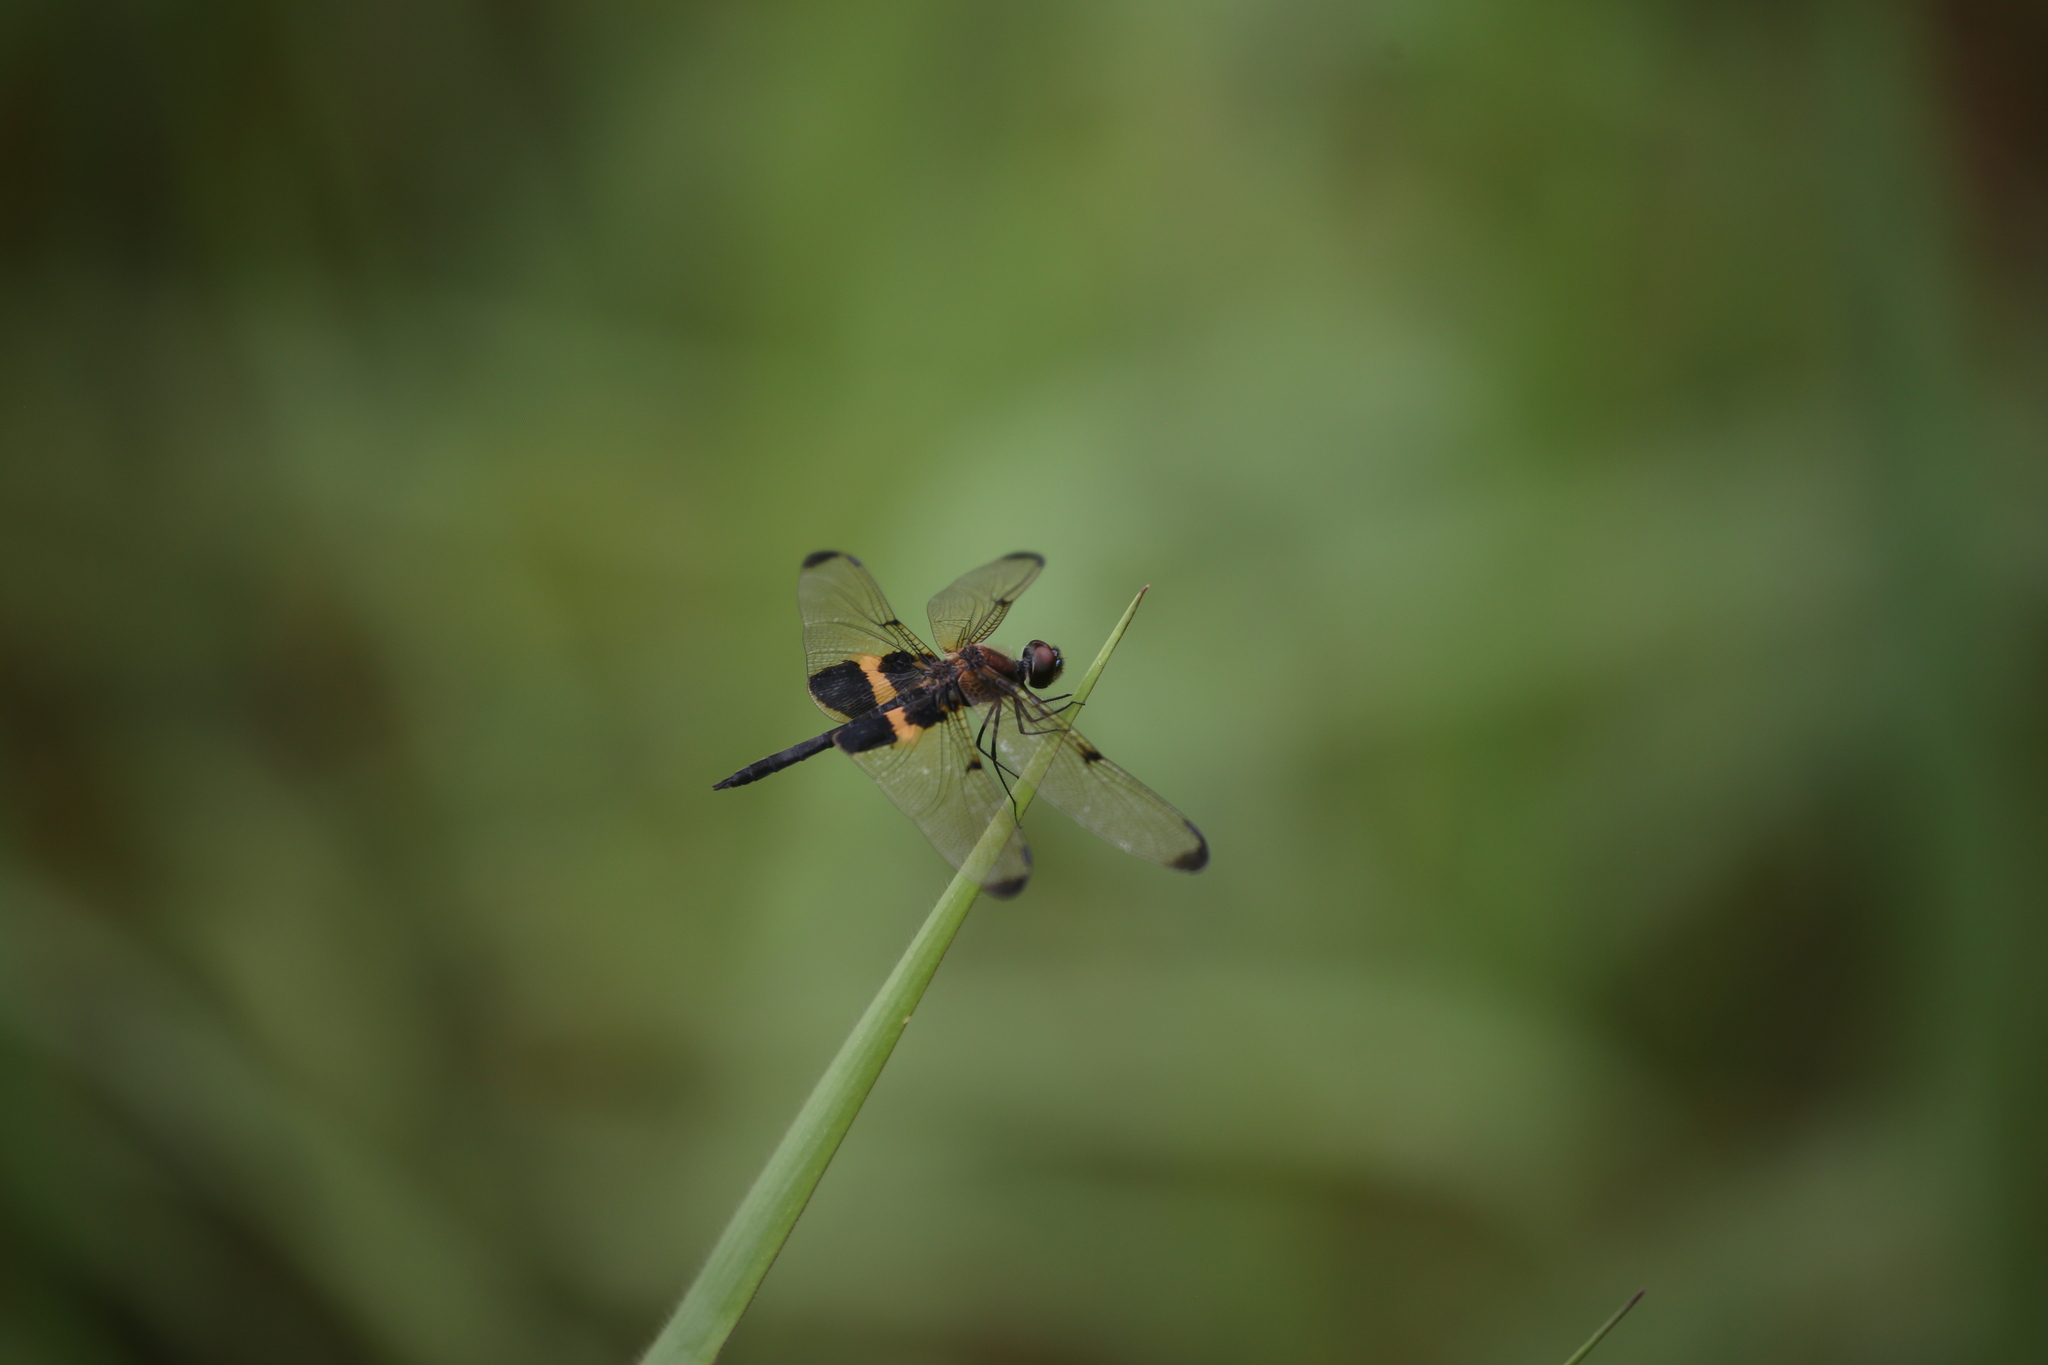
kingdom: Animalia
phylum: Arthropoda
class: Insecta
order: Odonata
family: Libellulidae
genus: Rhyothemis
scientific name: Rhyothemis phyllis
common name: Yellow-barred flutterer
